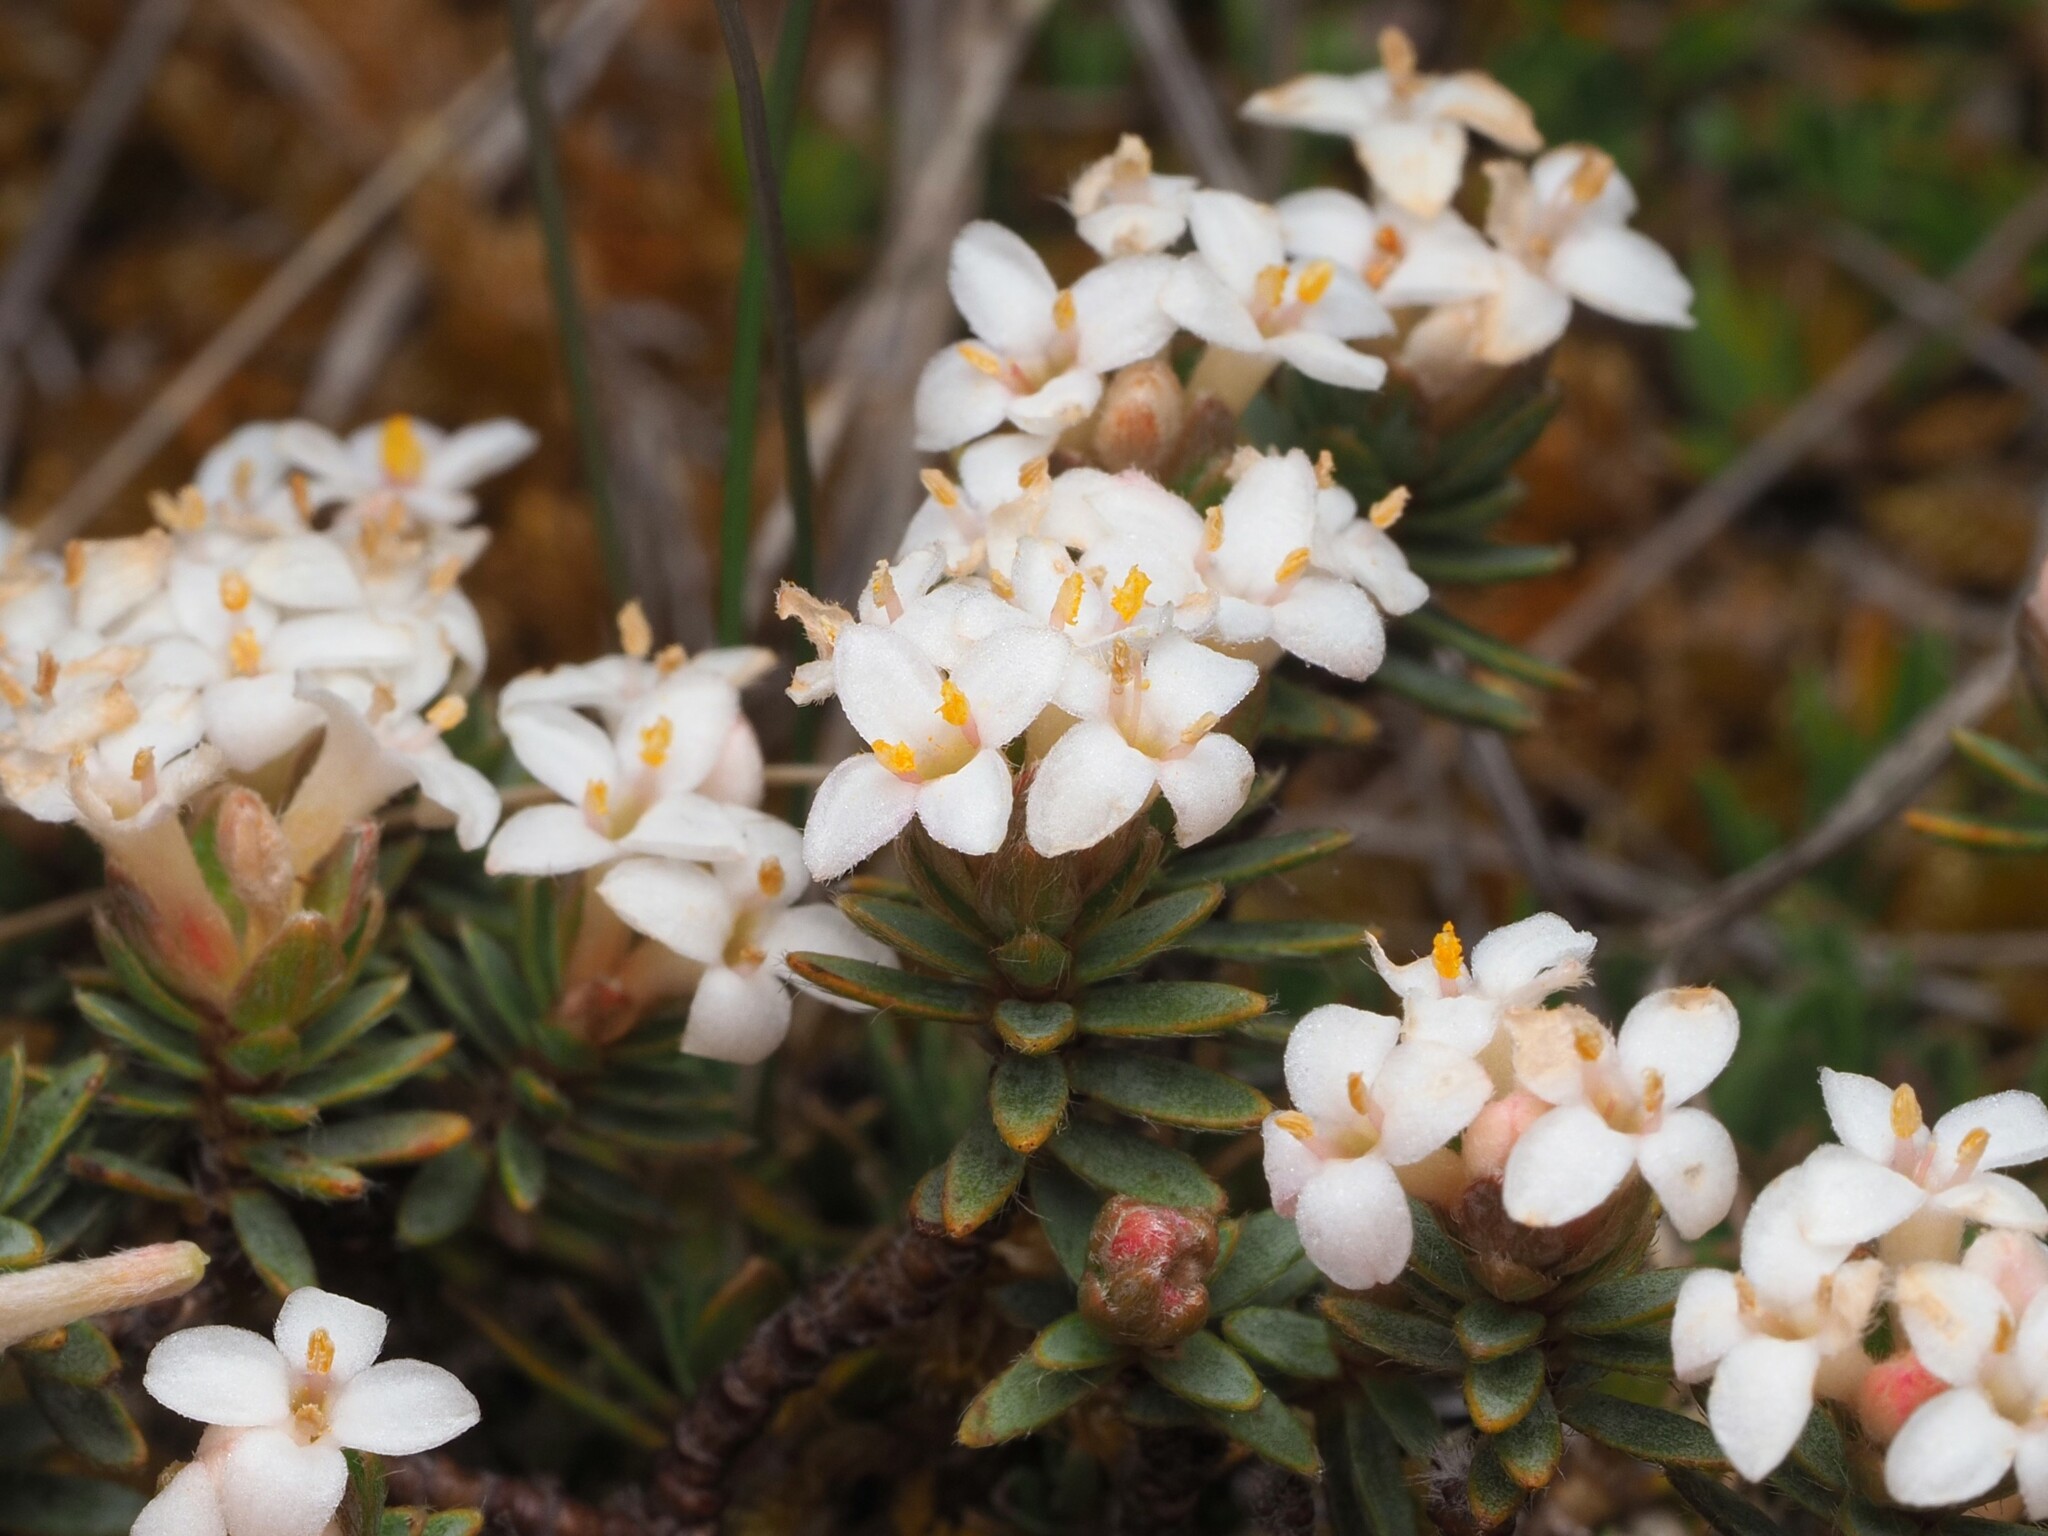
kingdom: Plantae
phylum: Tracheophyta
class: Magnoliopsida
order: Malvales
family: Thymelaeaceae
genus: Pimelea
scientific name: Pimelea oreophila
